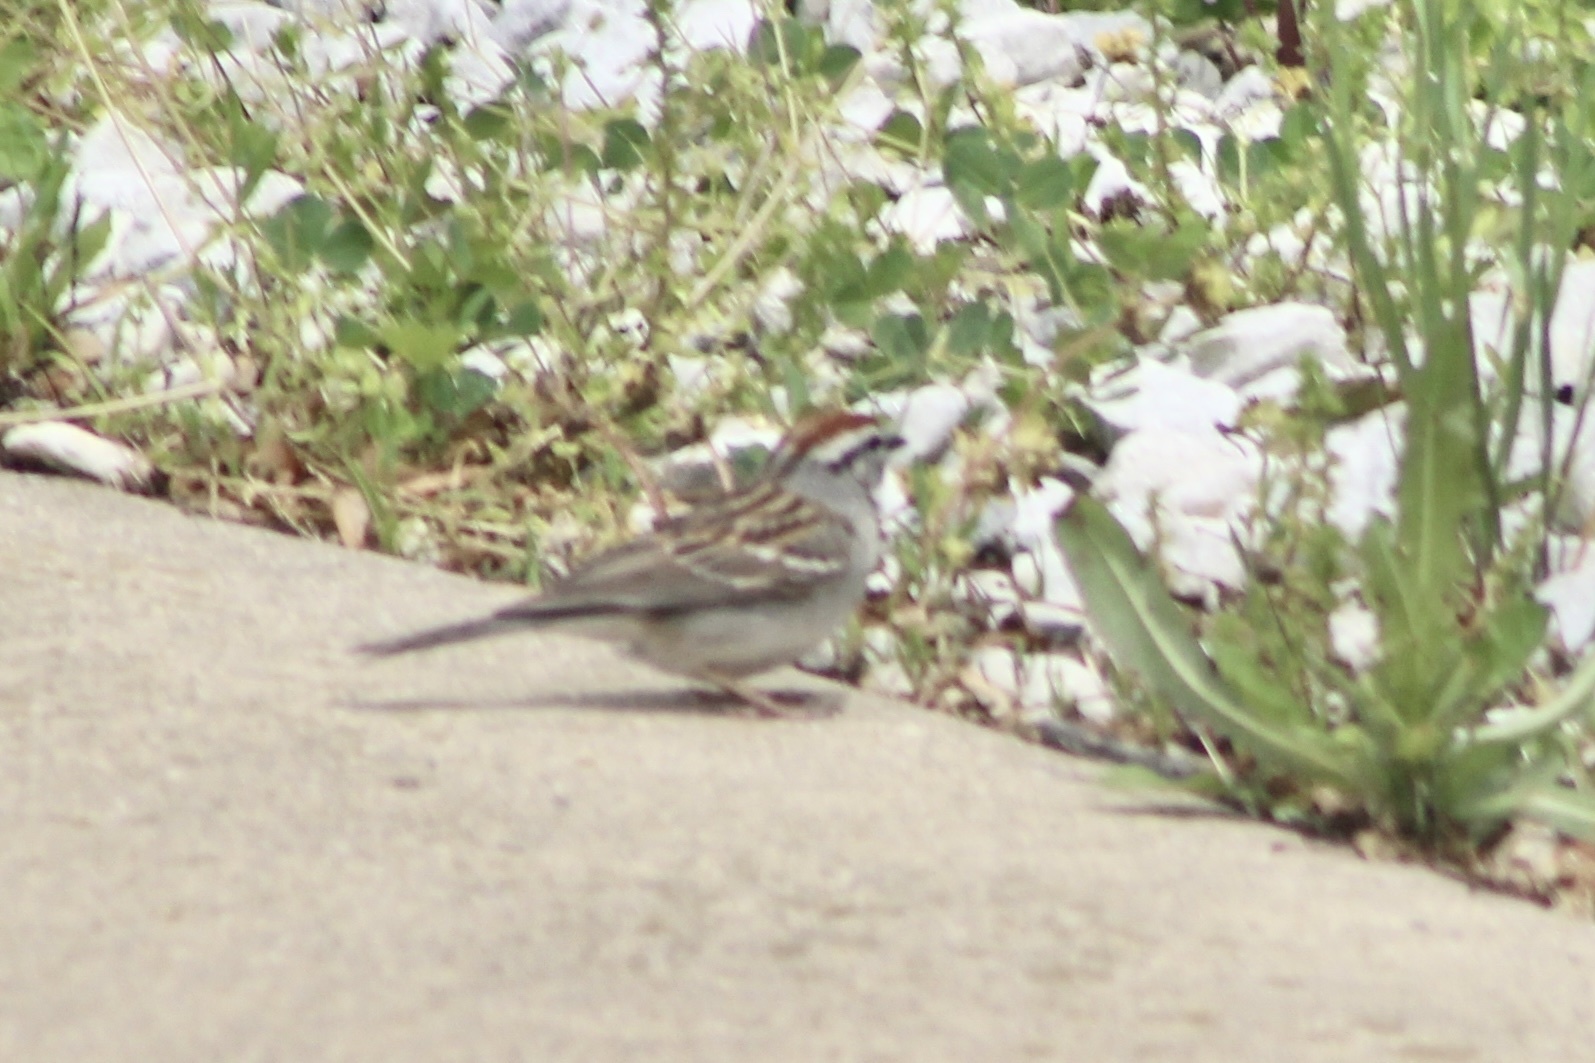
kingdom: Animalia
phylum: Chordata
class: Aves
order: Passeriformes
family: Passerellidae
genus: Spizella
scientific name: Spizella passerina
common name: Chipping sparrow
